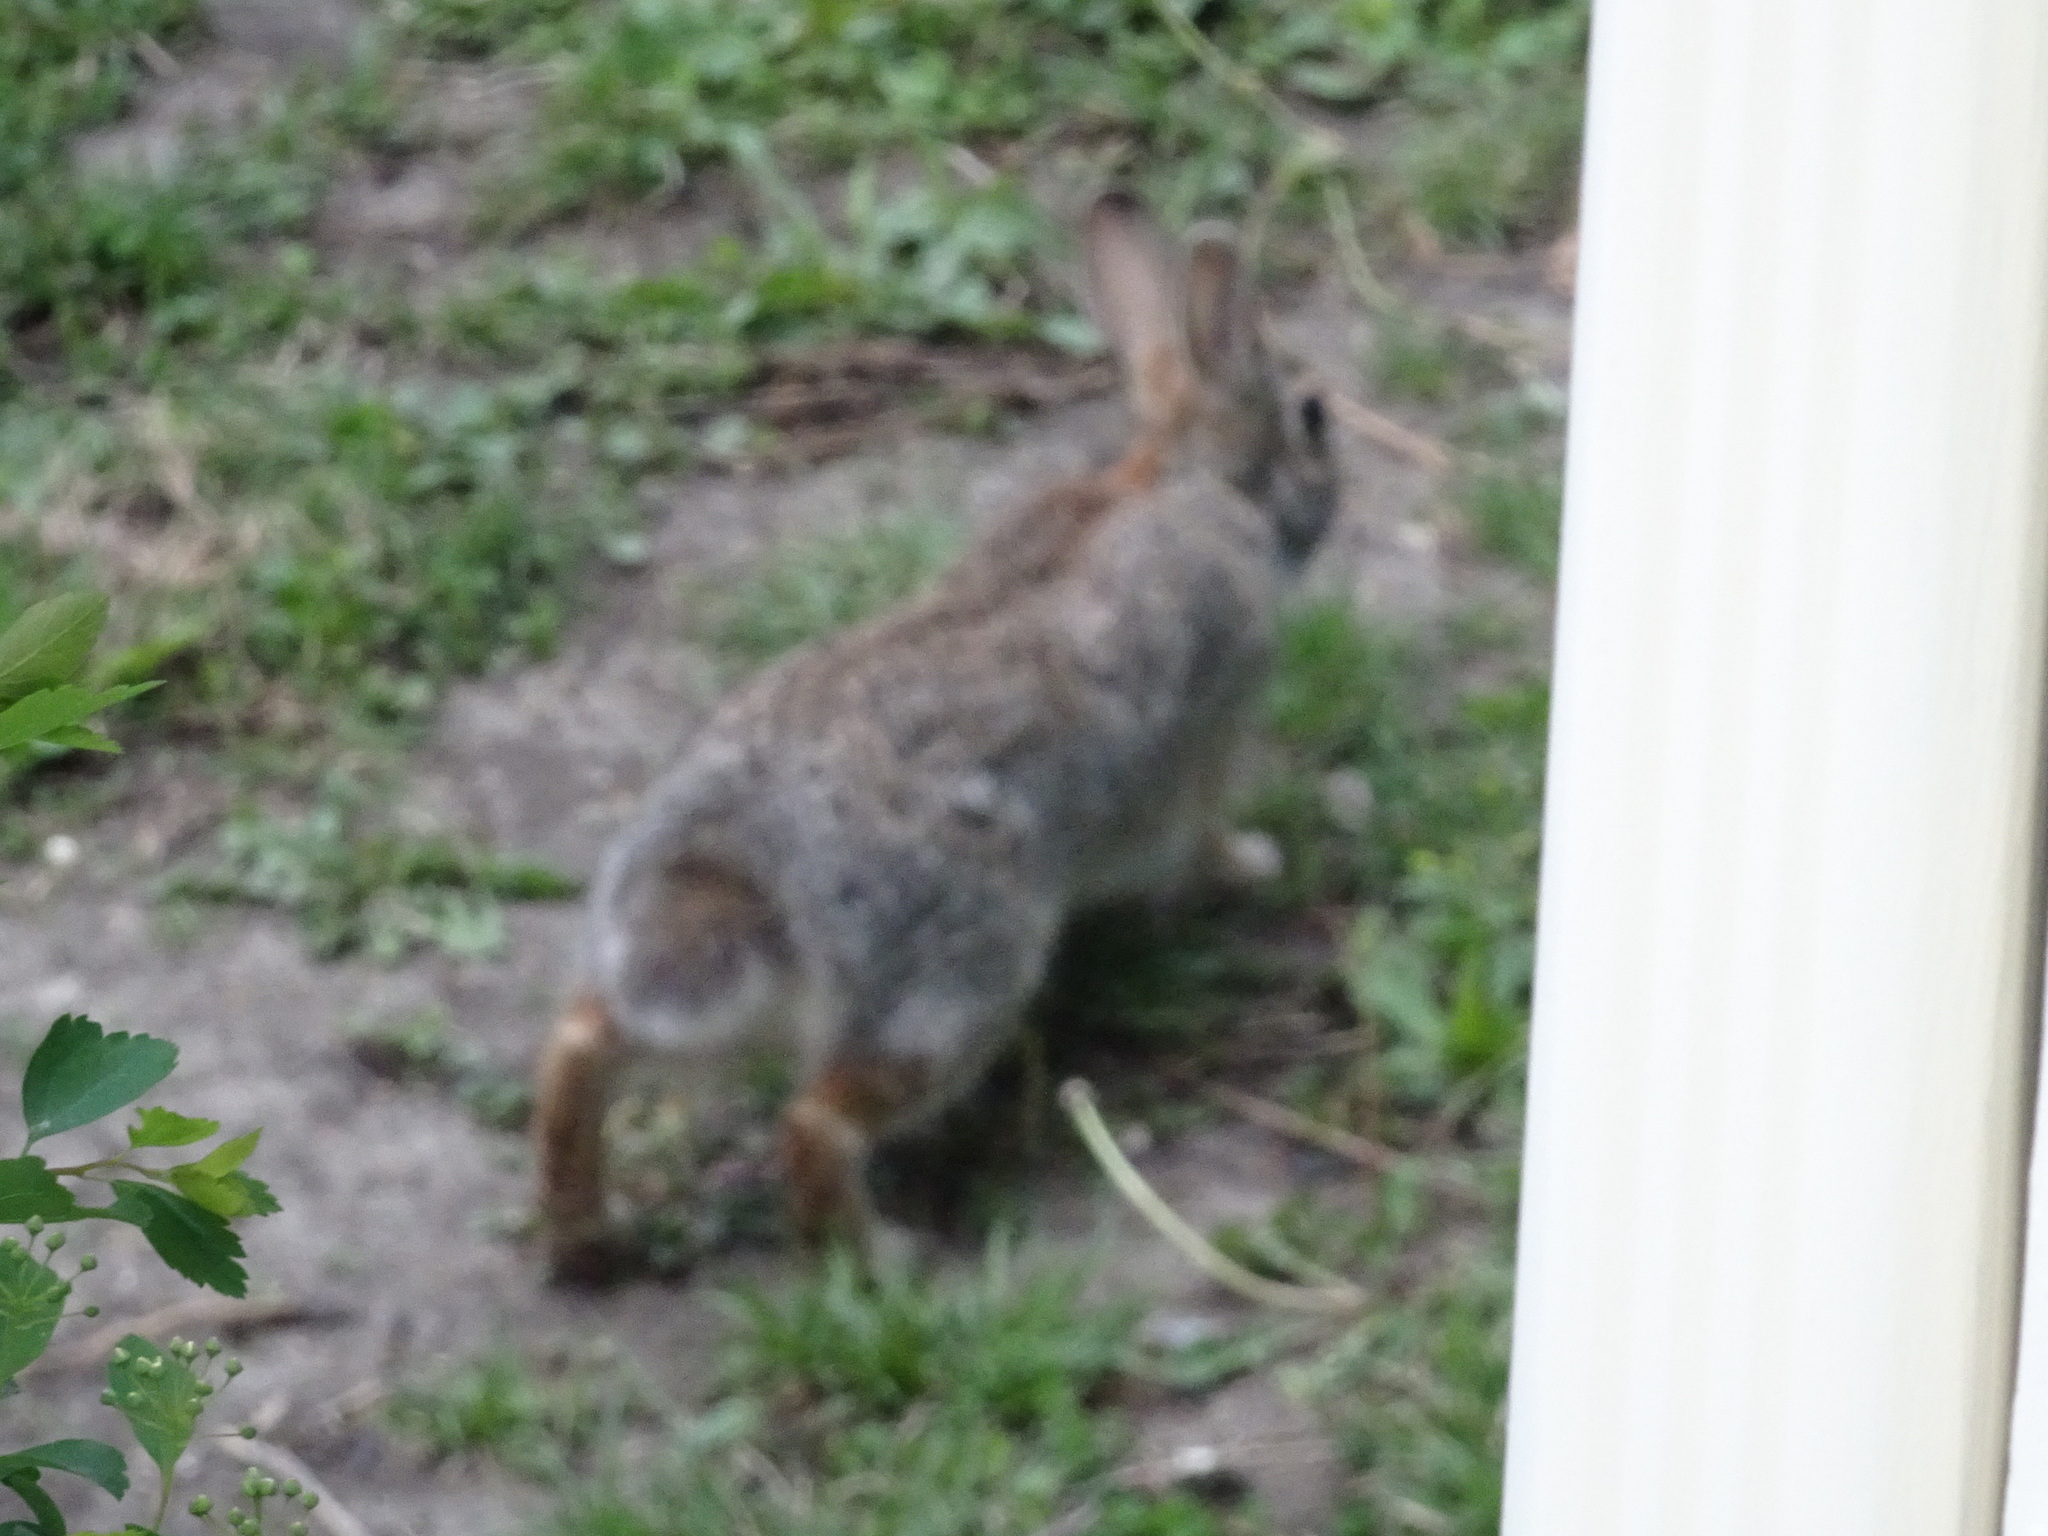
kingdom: Animalia
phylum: Chordata
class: Mammalia
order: Lagomorpha
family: Leporidae
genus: Sylvilagus
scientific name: Sylvilagus floridanus
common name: Eastern cottontail
